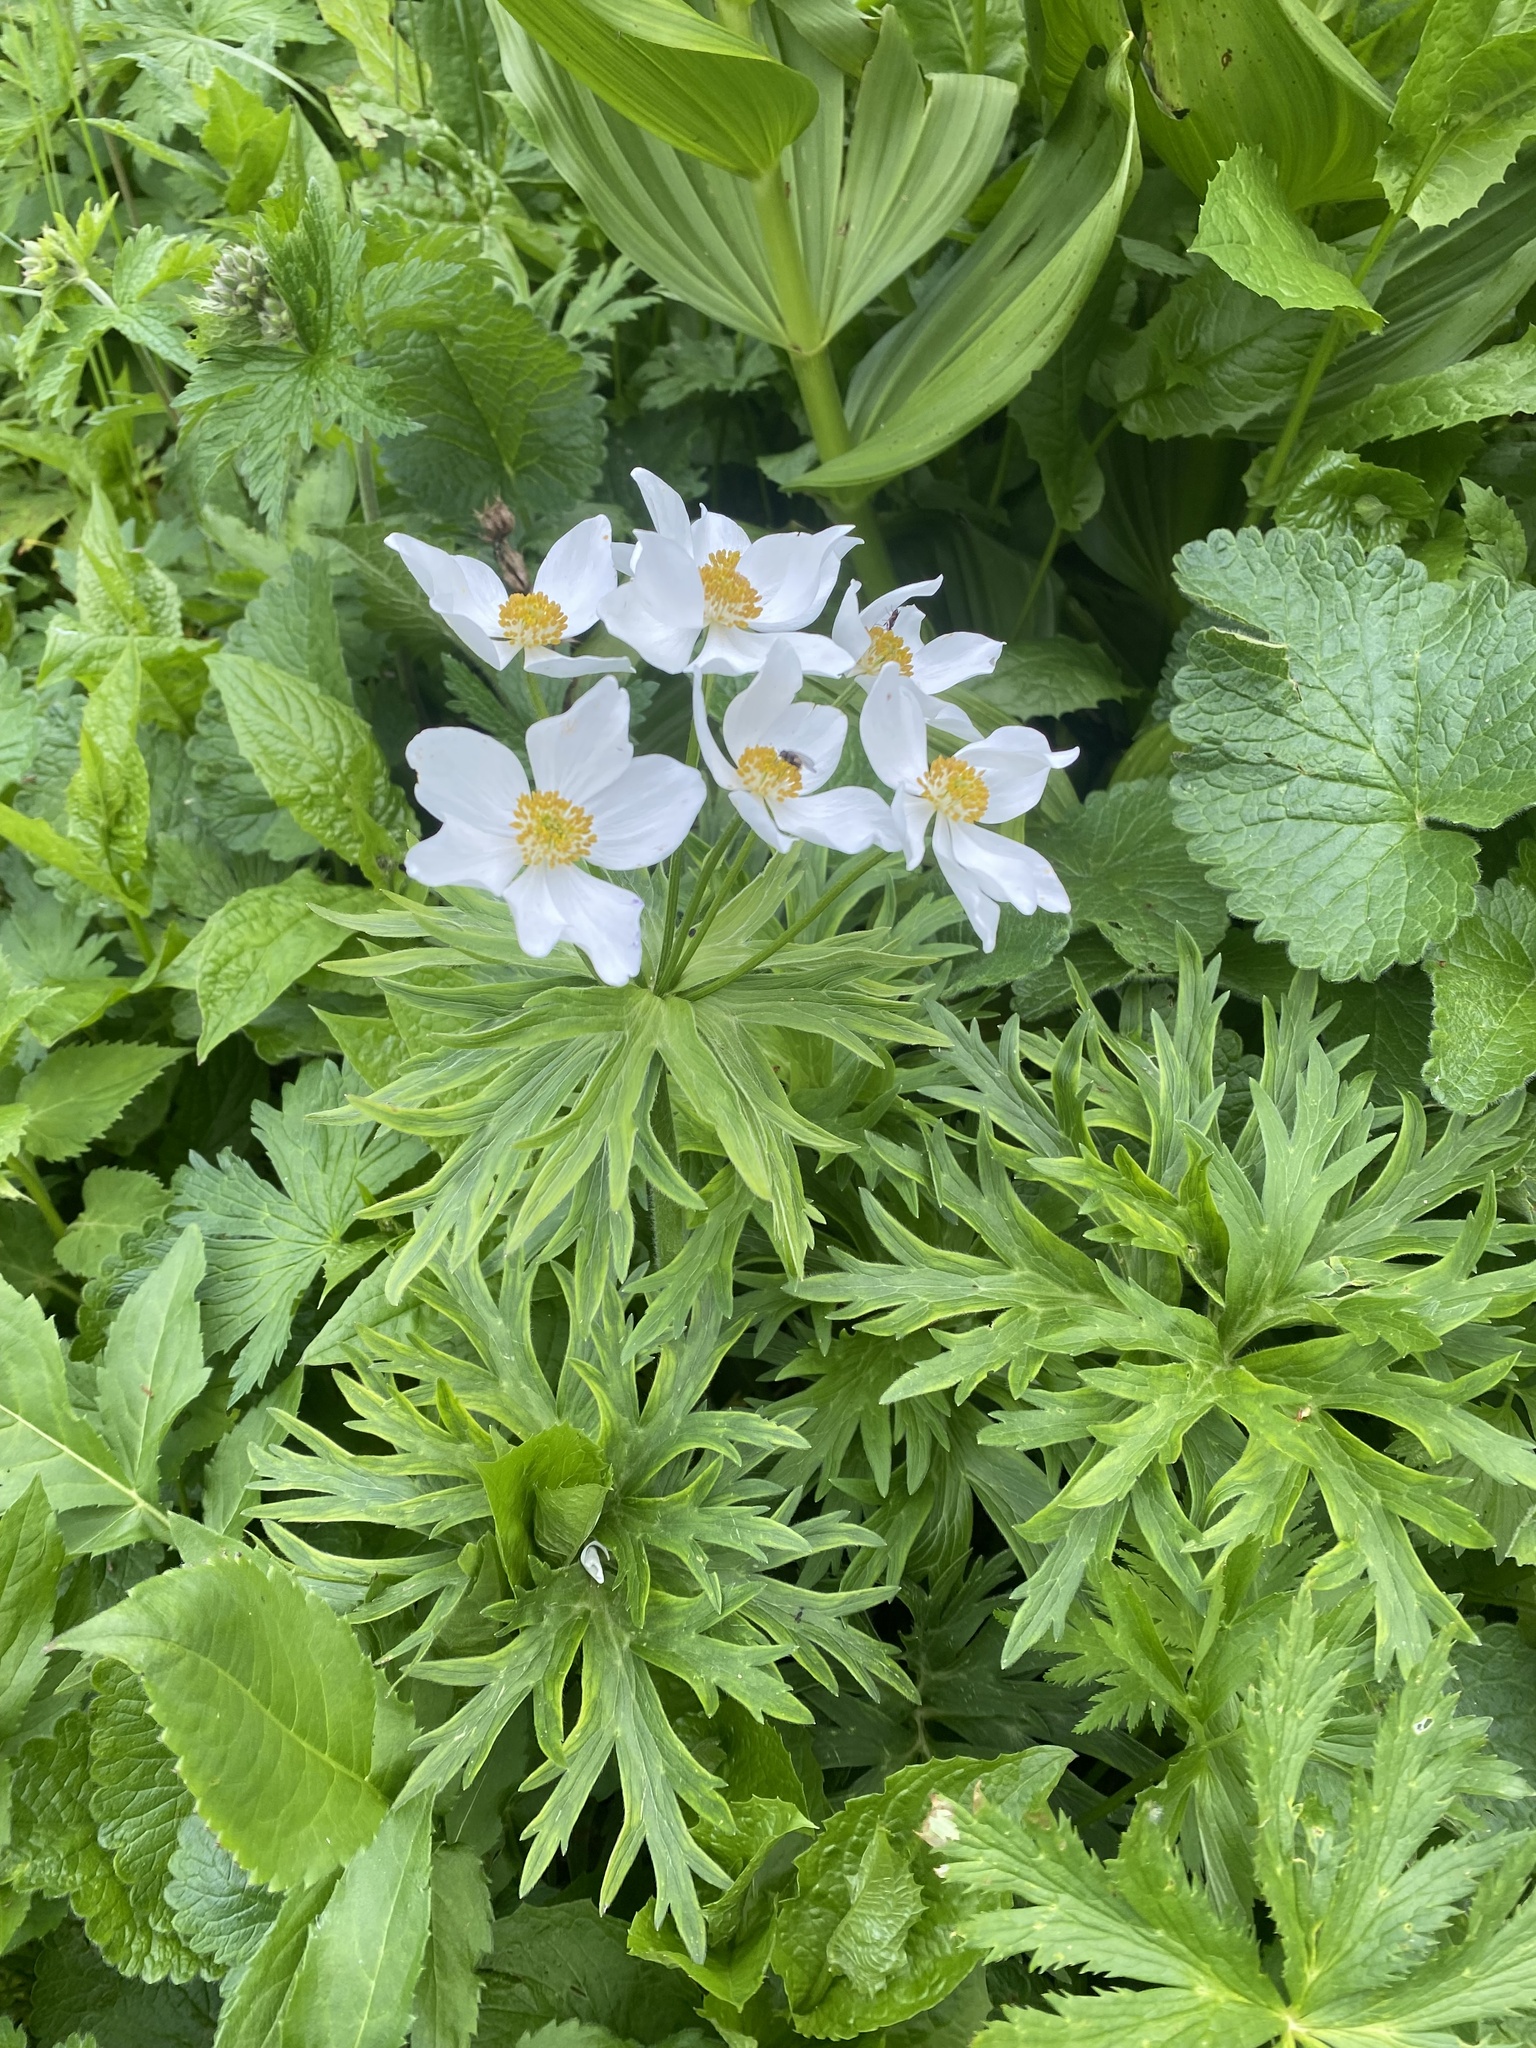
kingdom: Plantae
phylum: Tracheophyta
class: Magnoliopsida
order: Ranunculales
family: Ranunculaceae
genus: Anemonastrum
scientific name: Anemonastrum narcissiflorum
